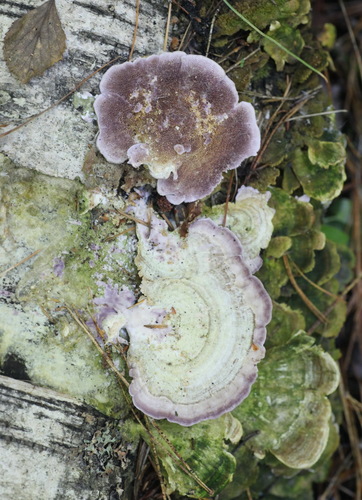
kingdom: Fungi
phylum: Basidiomycota
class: Agaricomycetes
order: Hymenochaetales
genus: Trichaptum
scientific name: Trichaptum biforme
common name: Violet-toothed polypore
